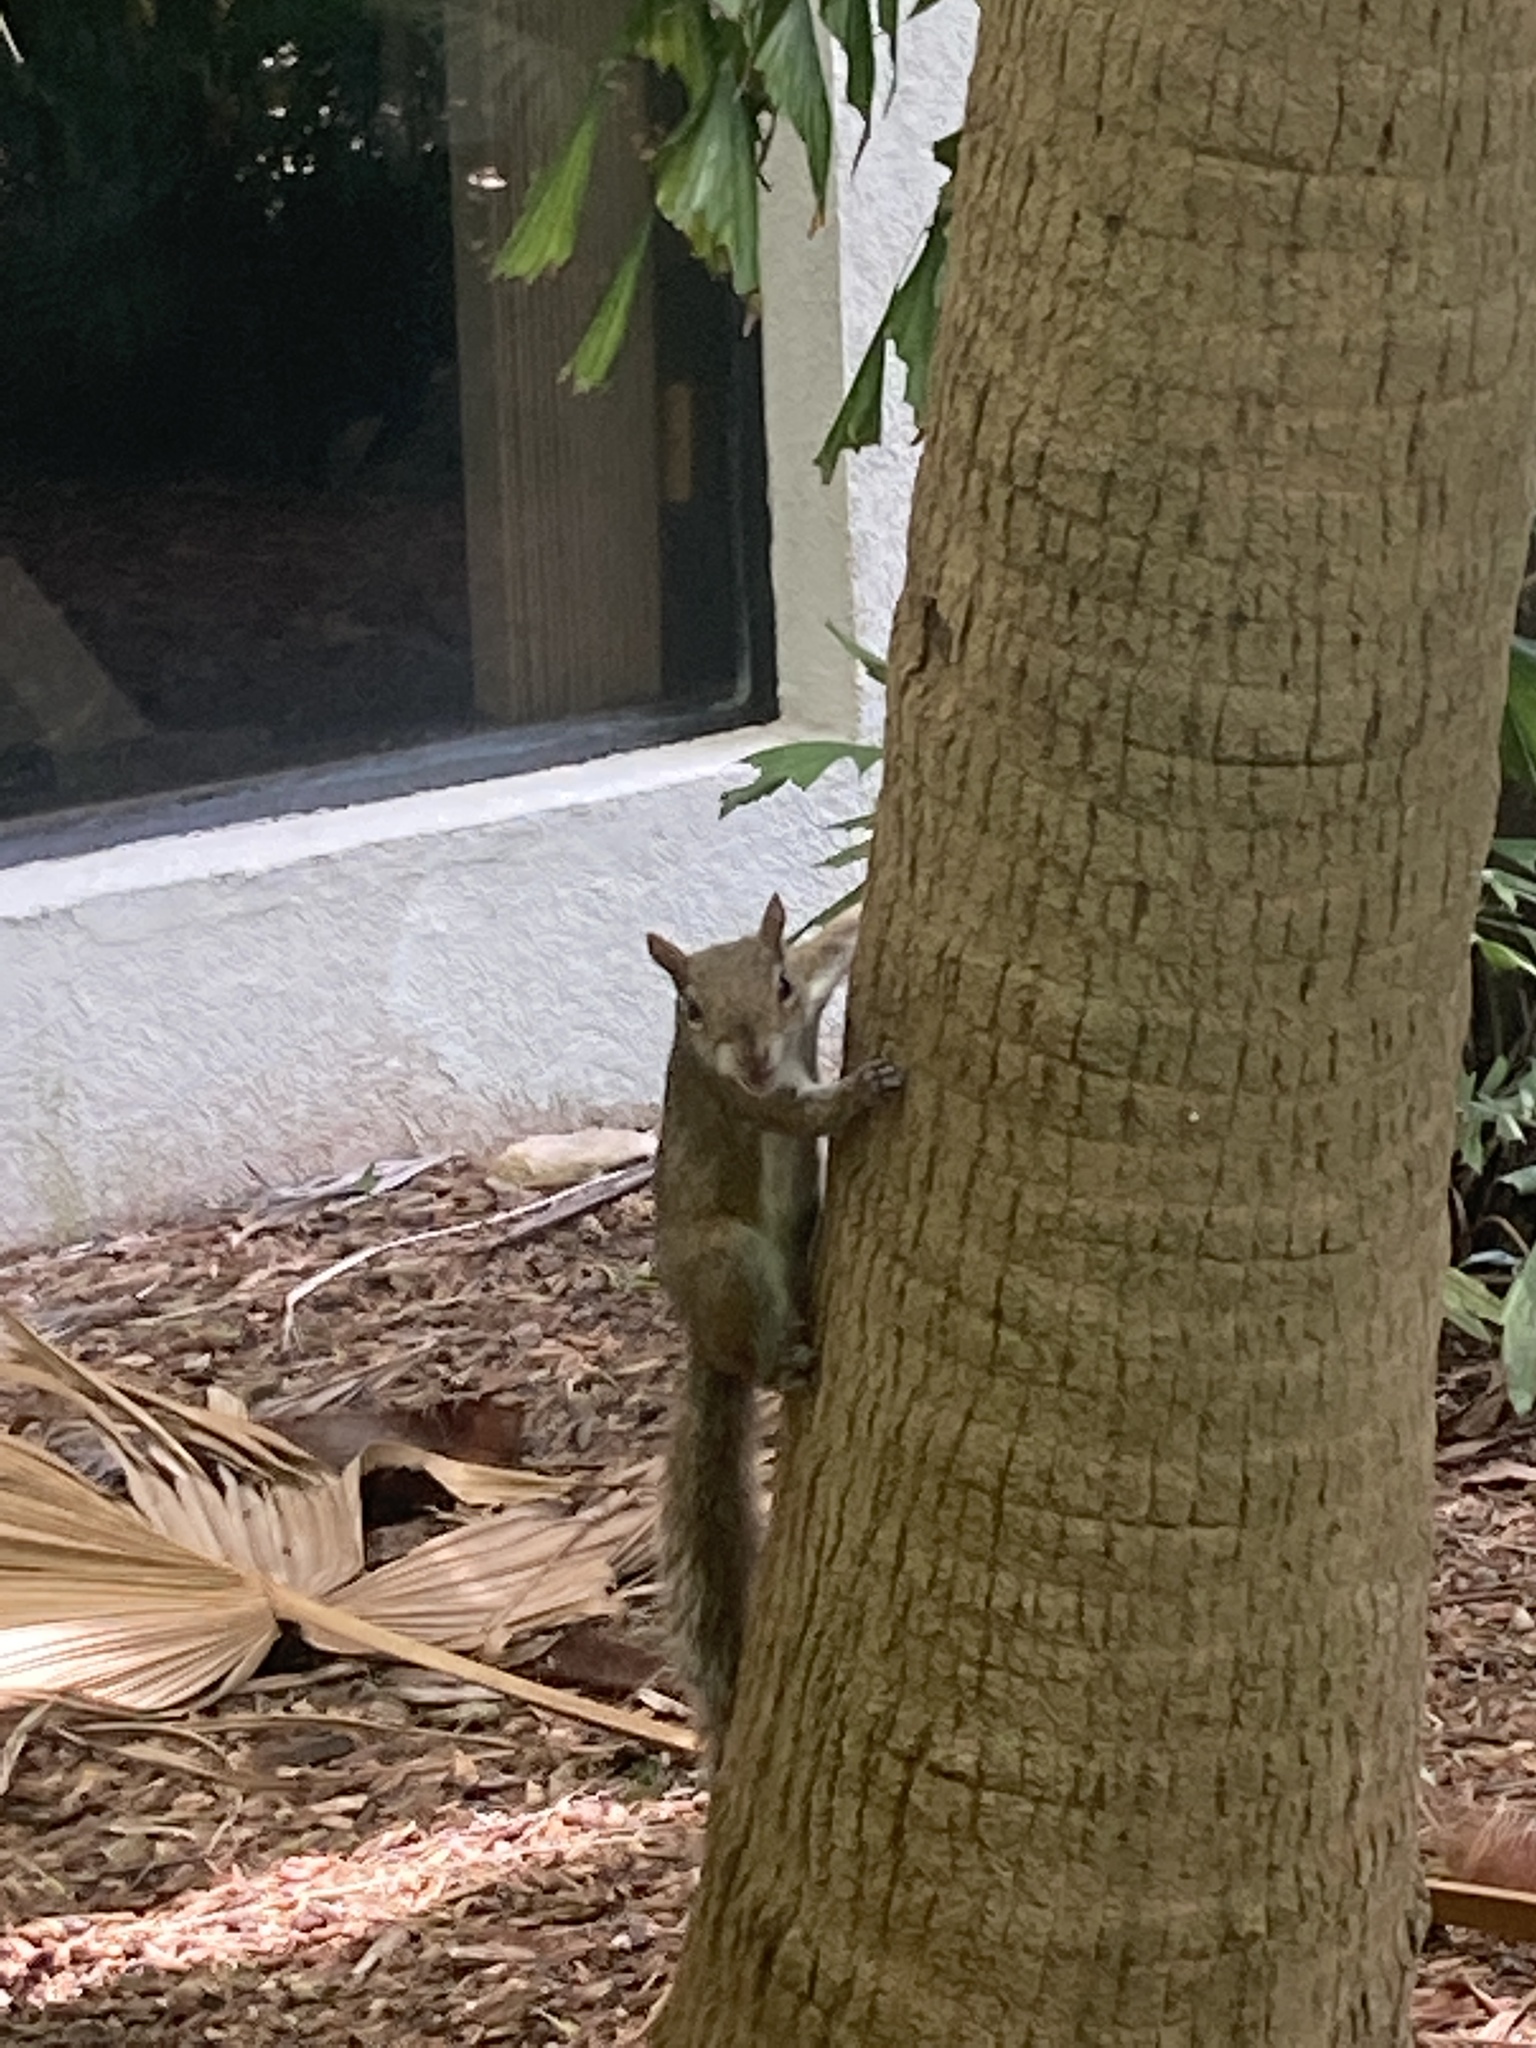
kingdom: Animalia
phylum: Chordata
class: Mammalia
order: Rodentia
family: Sciuridae
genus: Sciurus
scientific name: Sciurus carolinensis
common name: Eastern gray squirrel
